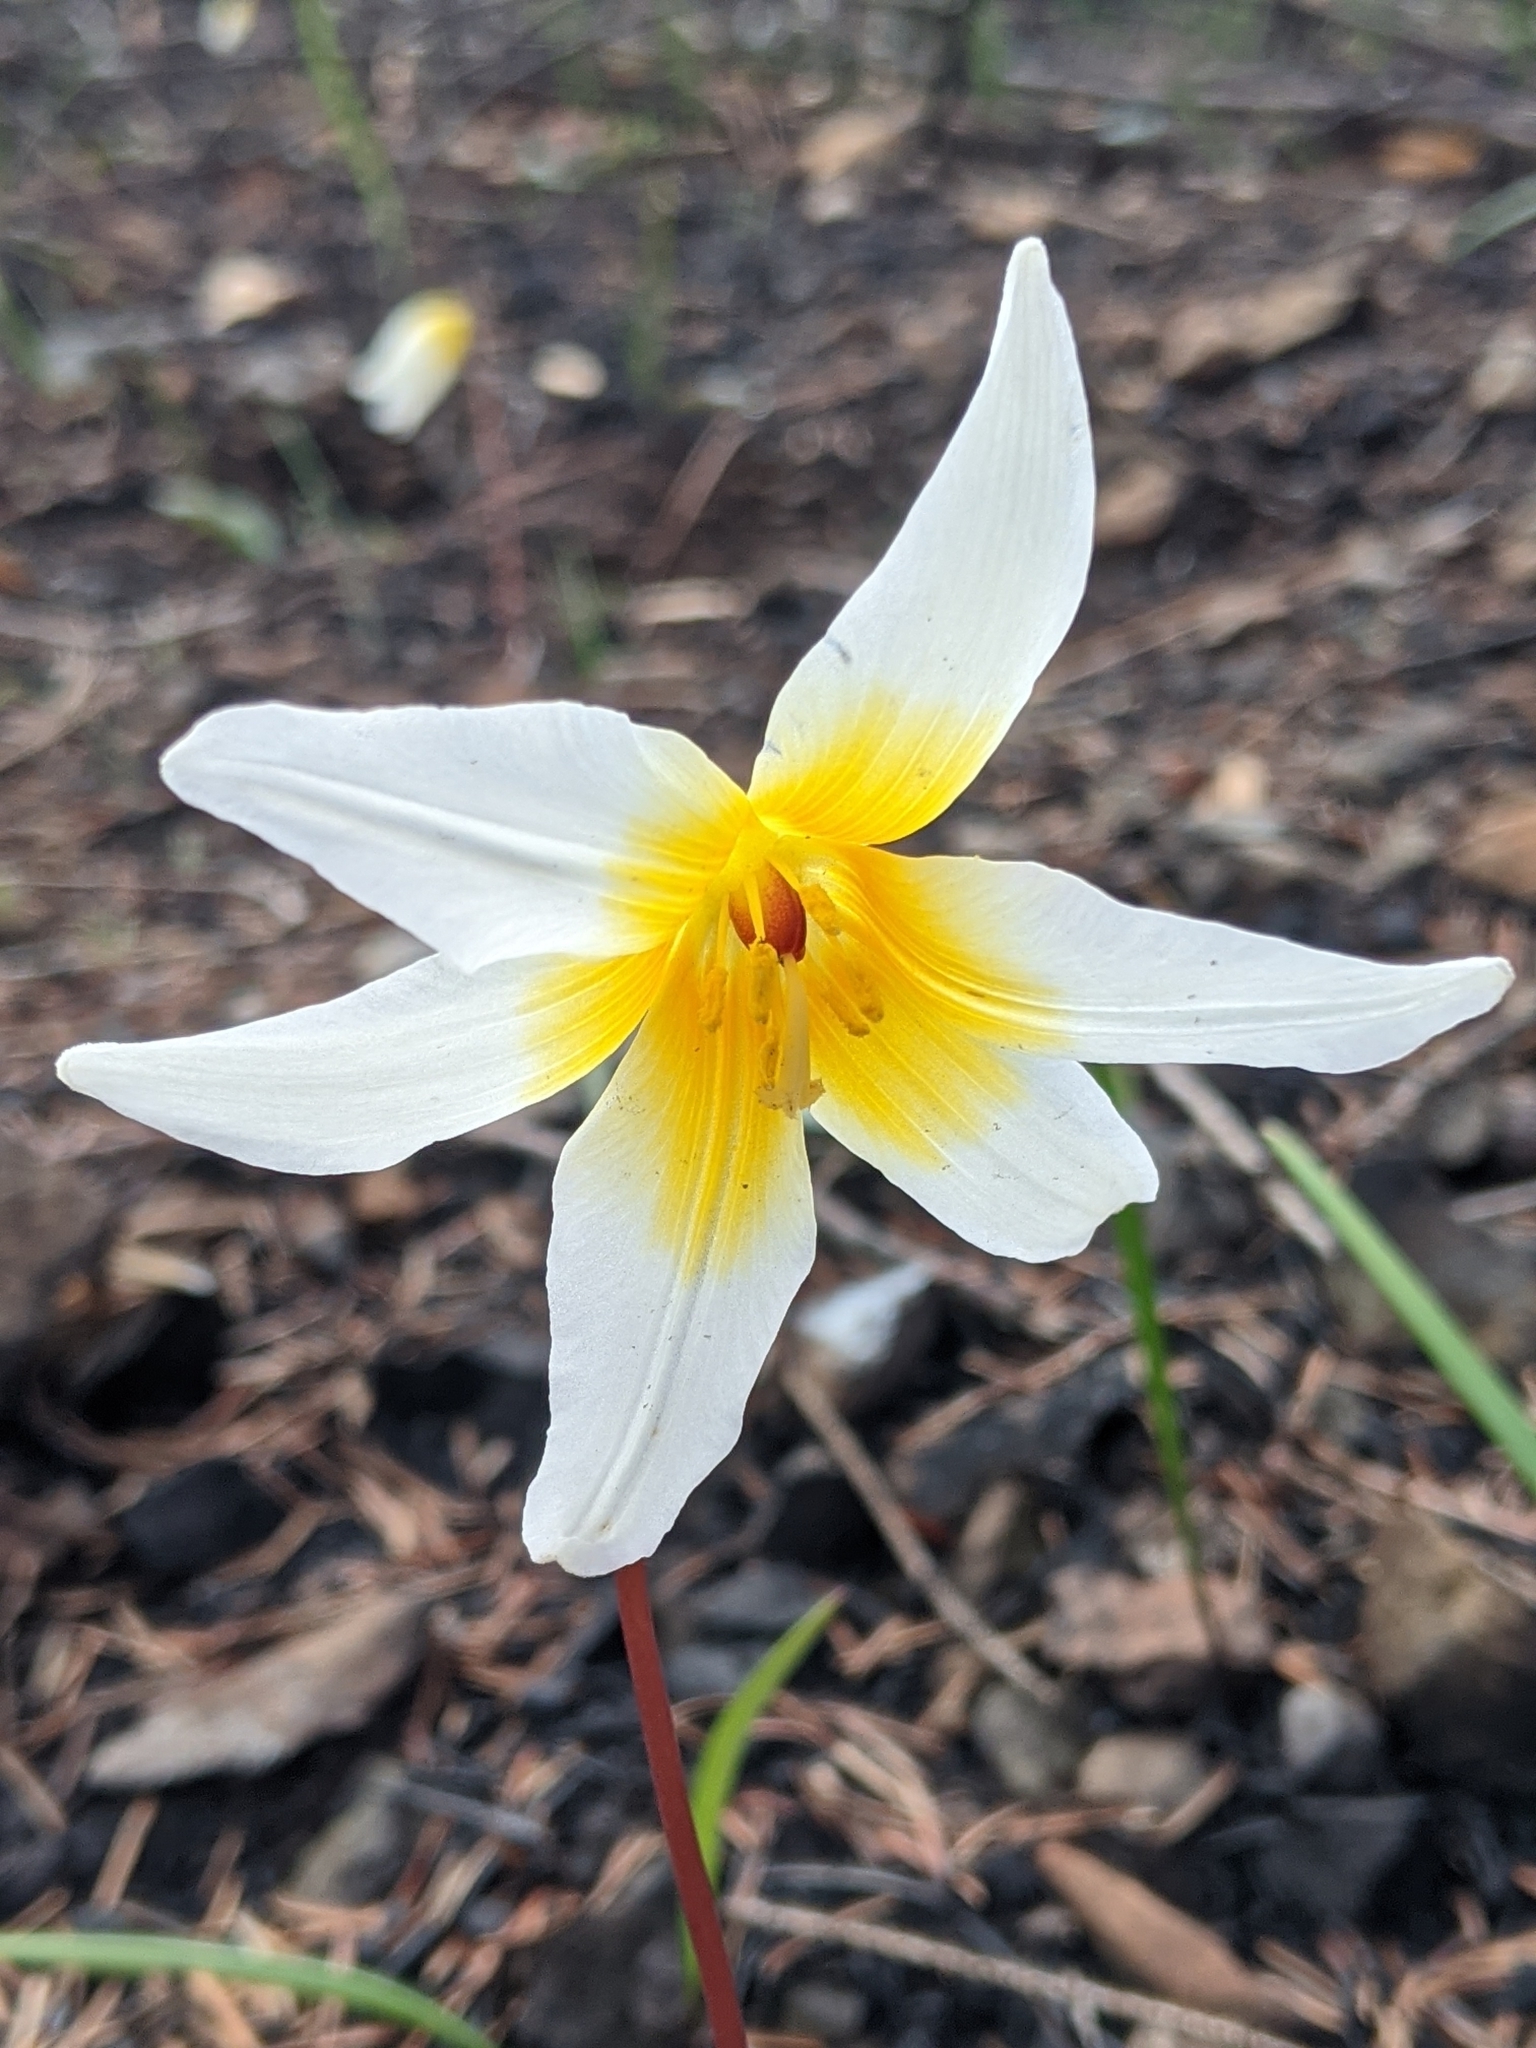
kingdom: Plantae
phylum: Tracheophyta
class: Liliopsida
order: Liliales
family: Liliaceae
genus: Erythronium
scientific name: Erythronium helenae
